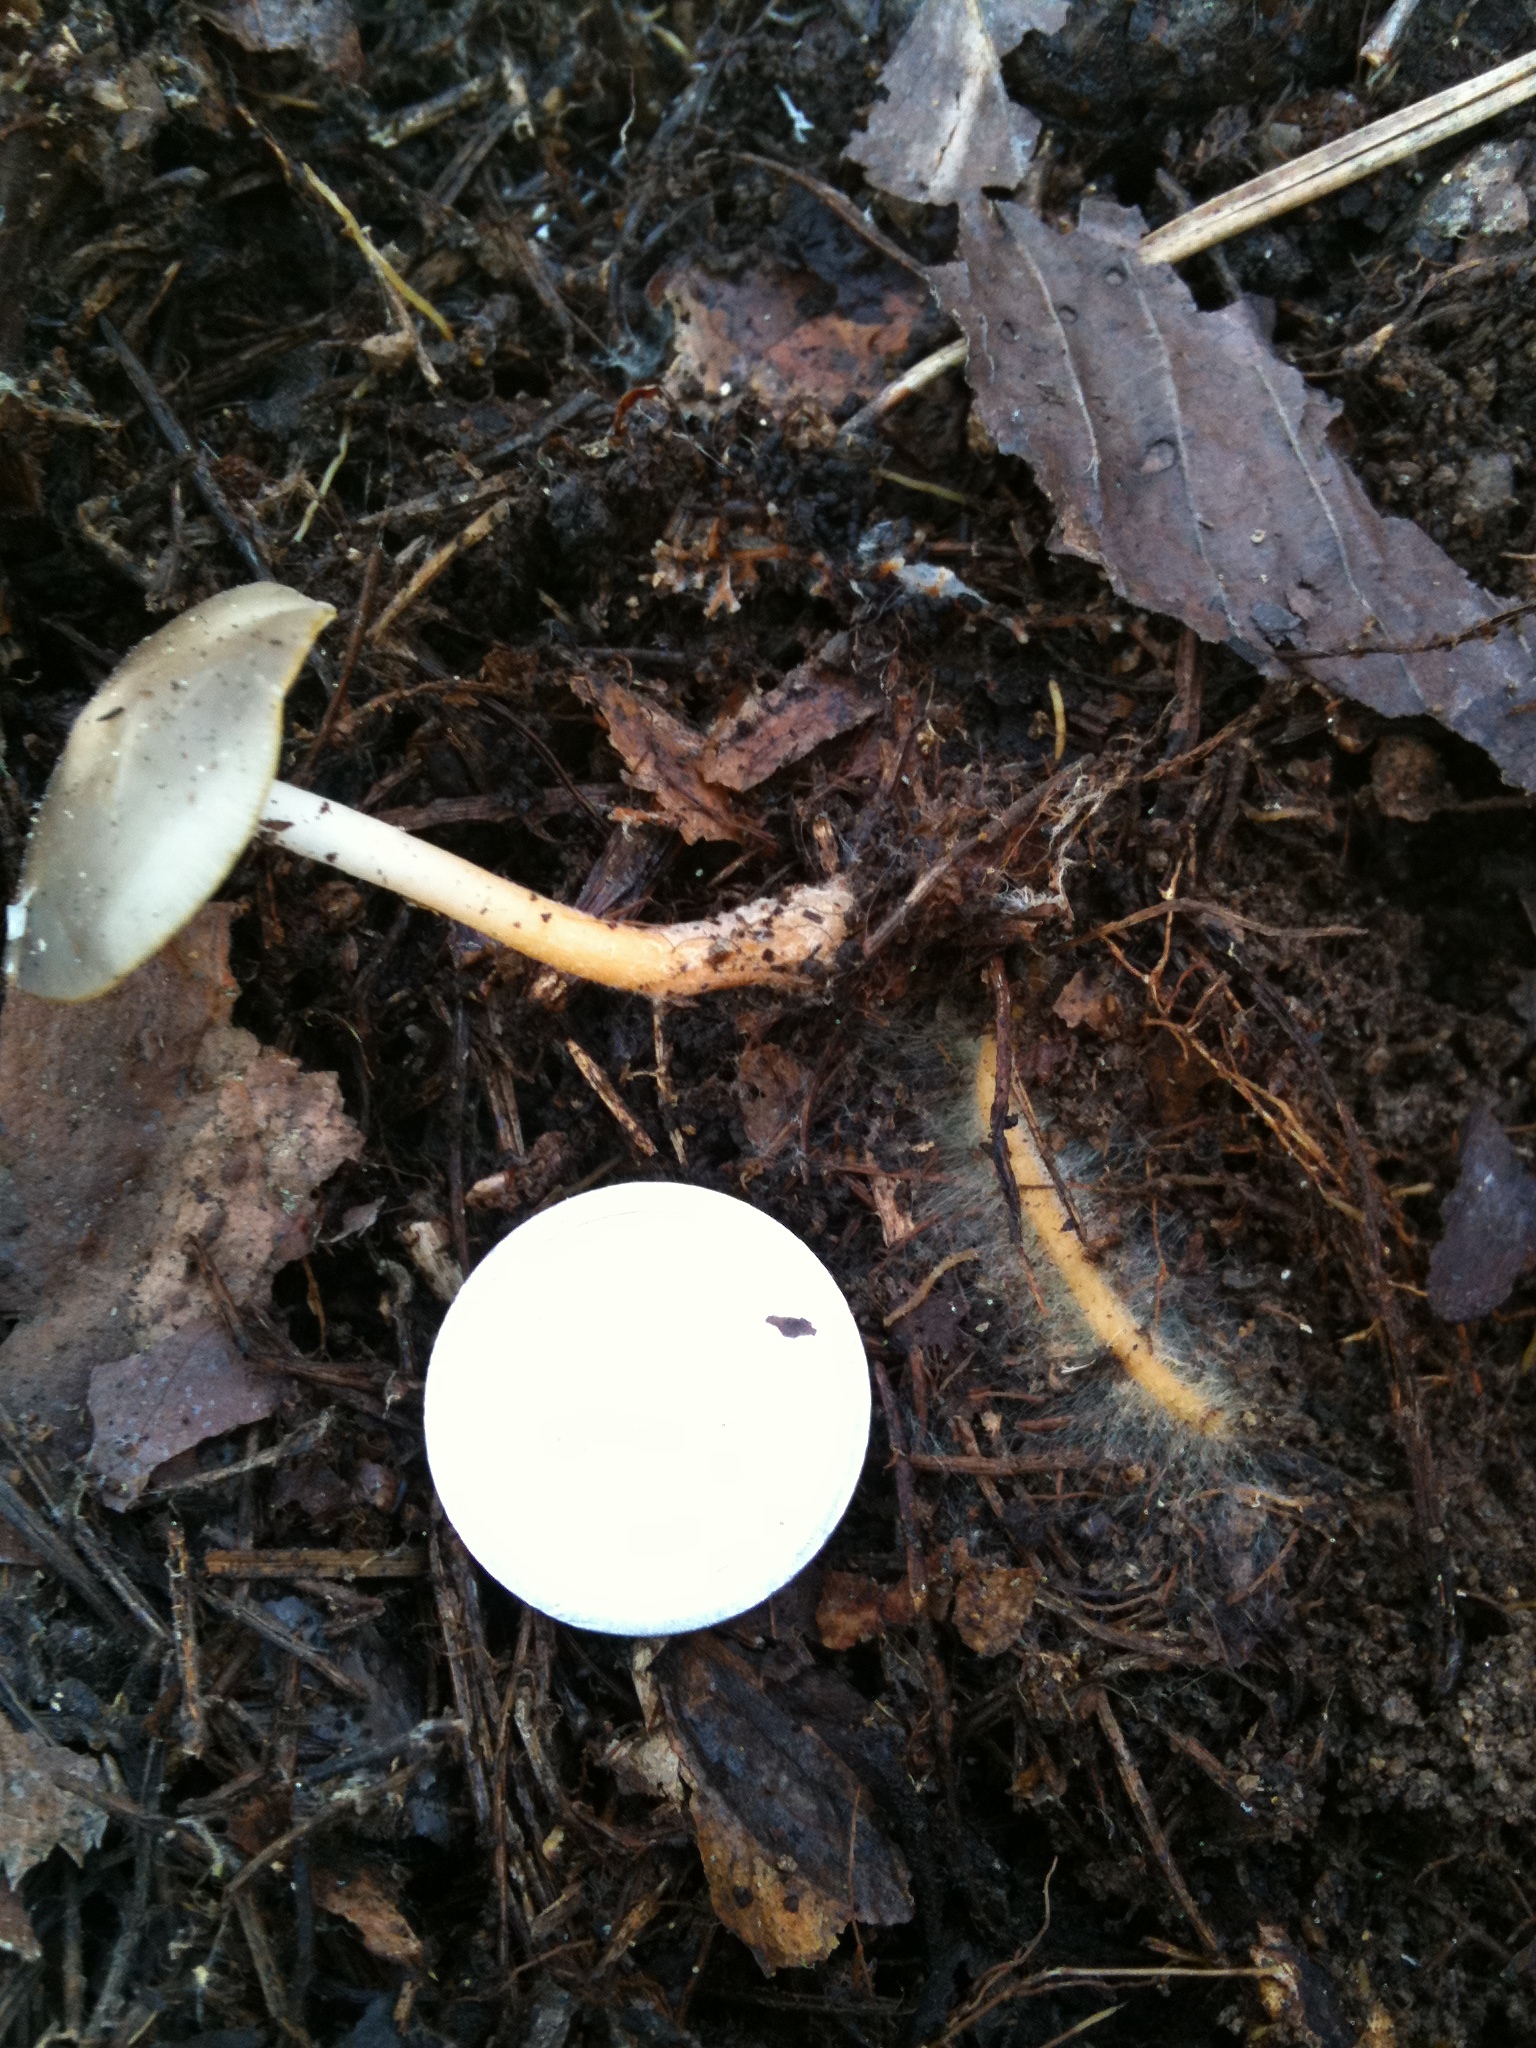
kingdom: Fungi
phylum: Basidiomycota
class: Agaricomycetes
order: Agaricales
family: Physalacriaceae
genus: Strobilurus
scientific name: Strobilurus stephanocystis
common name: Russian conecap
